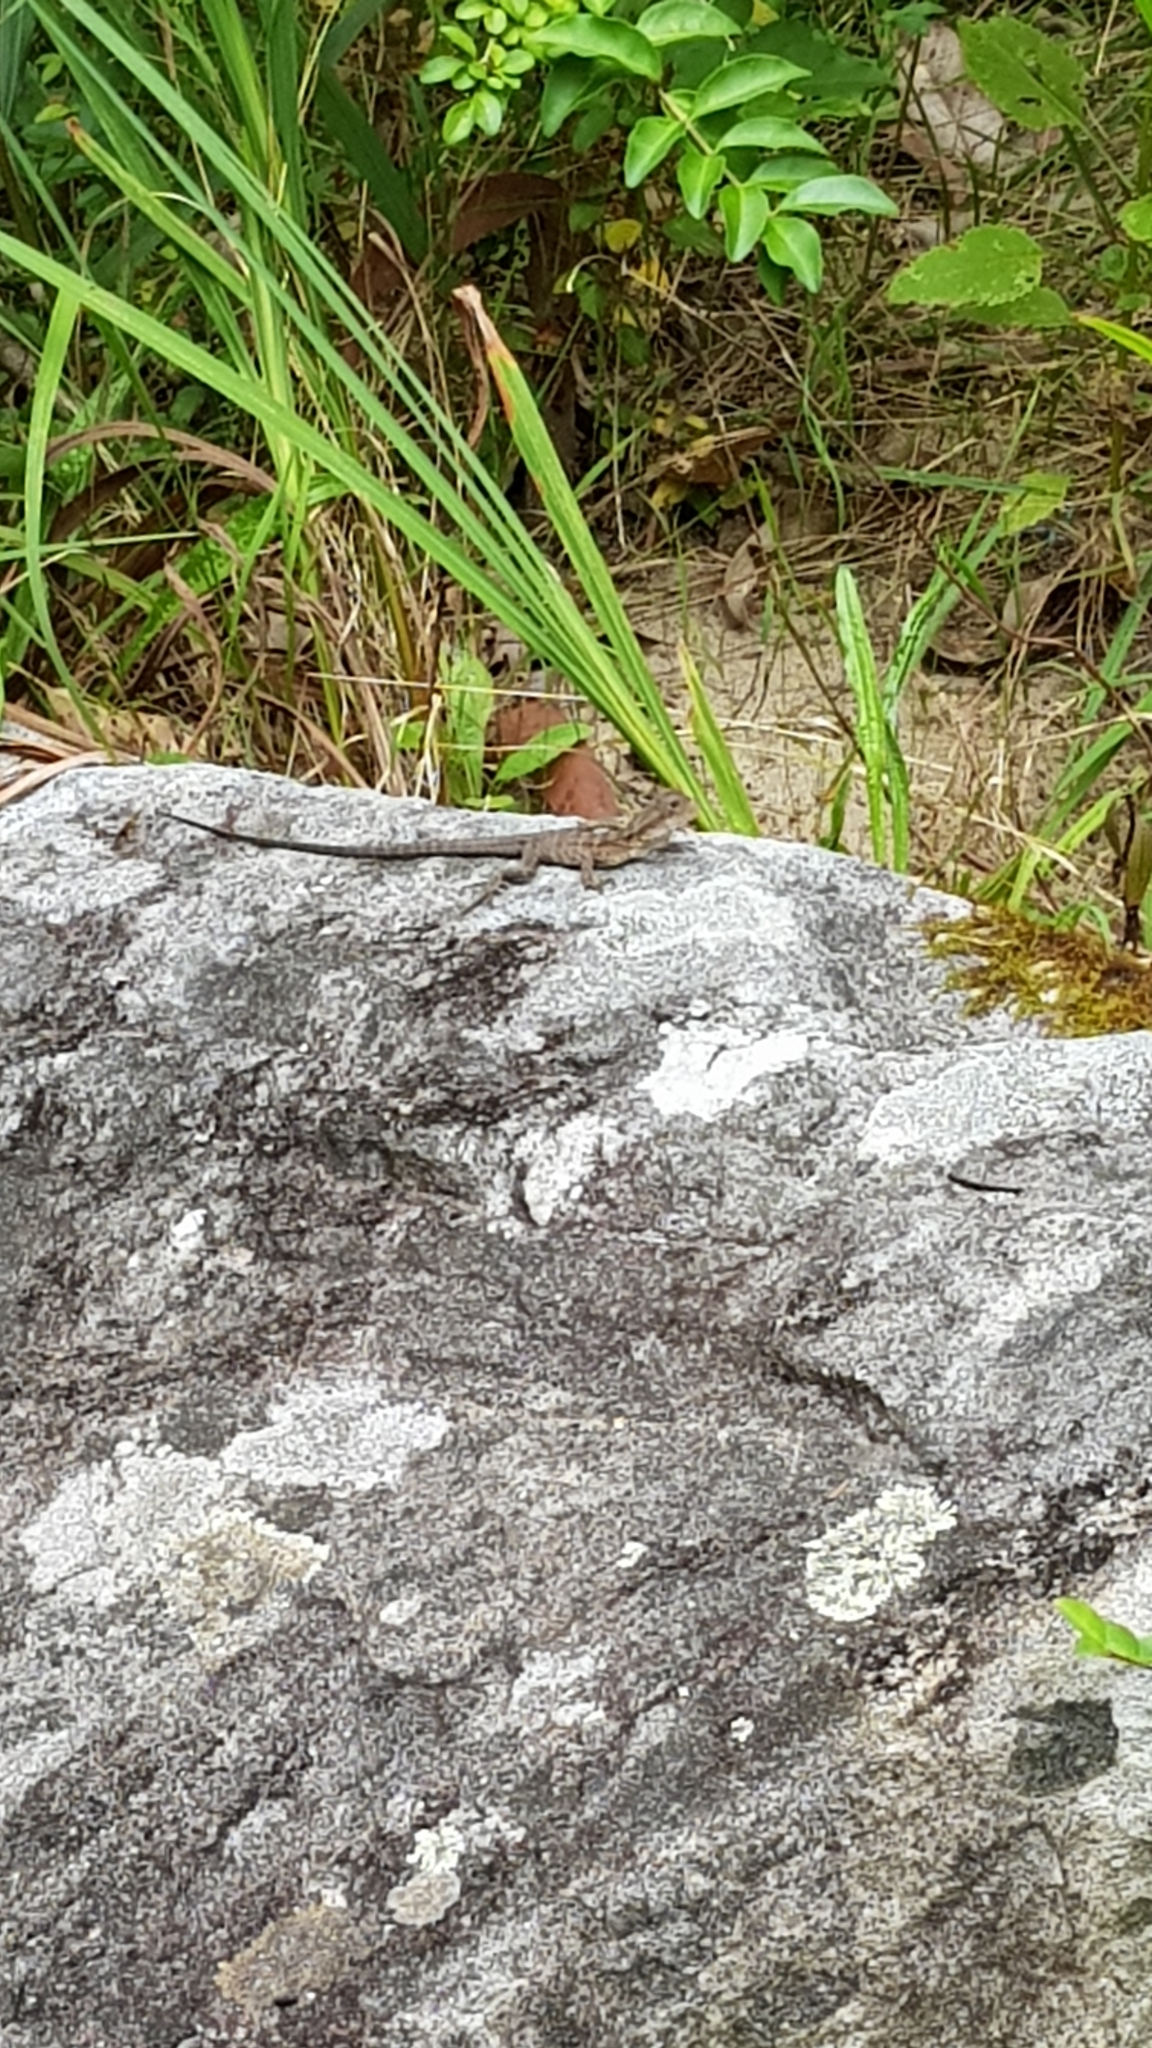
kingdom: Animalia
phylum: Chordata
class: Squamata
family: Agamidae
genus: Intellagama
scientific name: Intellagama lesueurii
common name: Eastern water dragon
